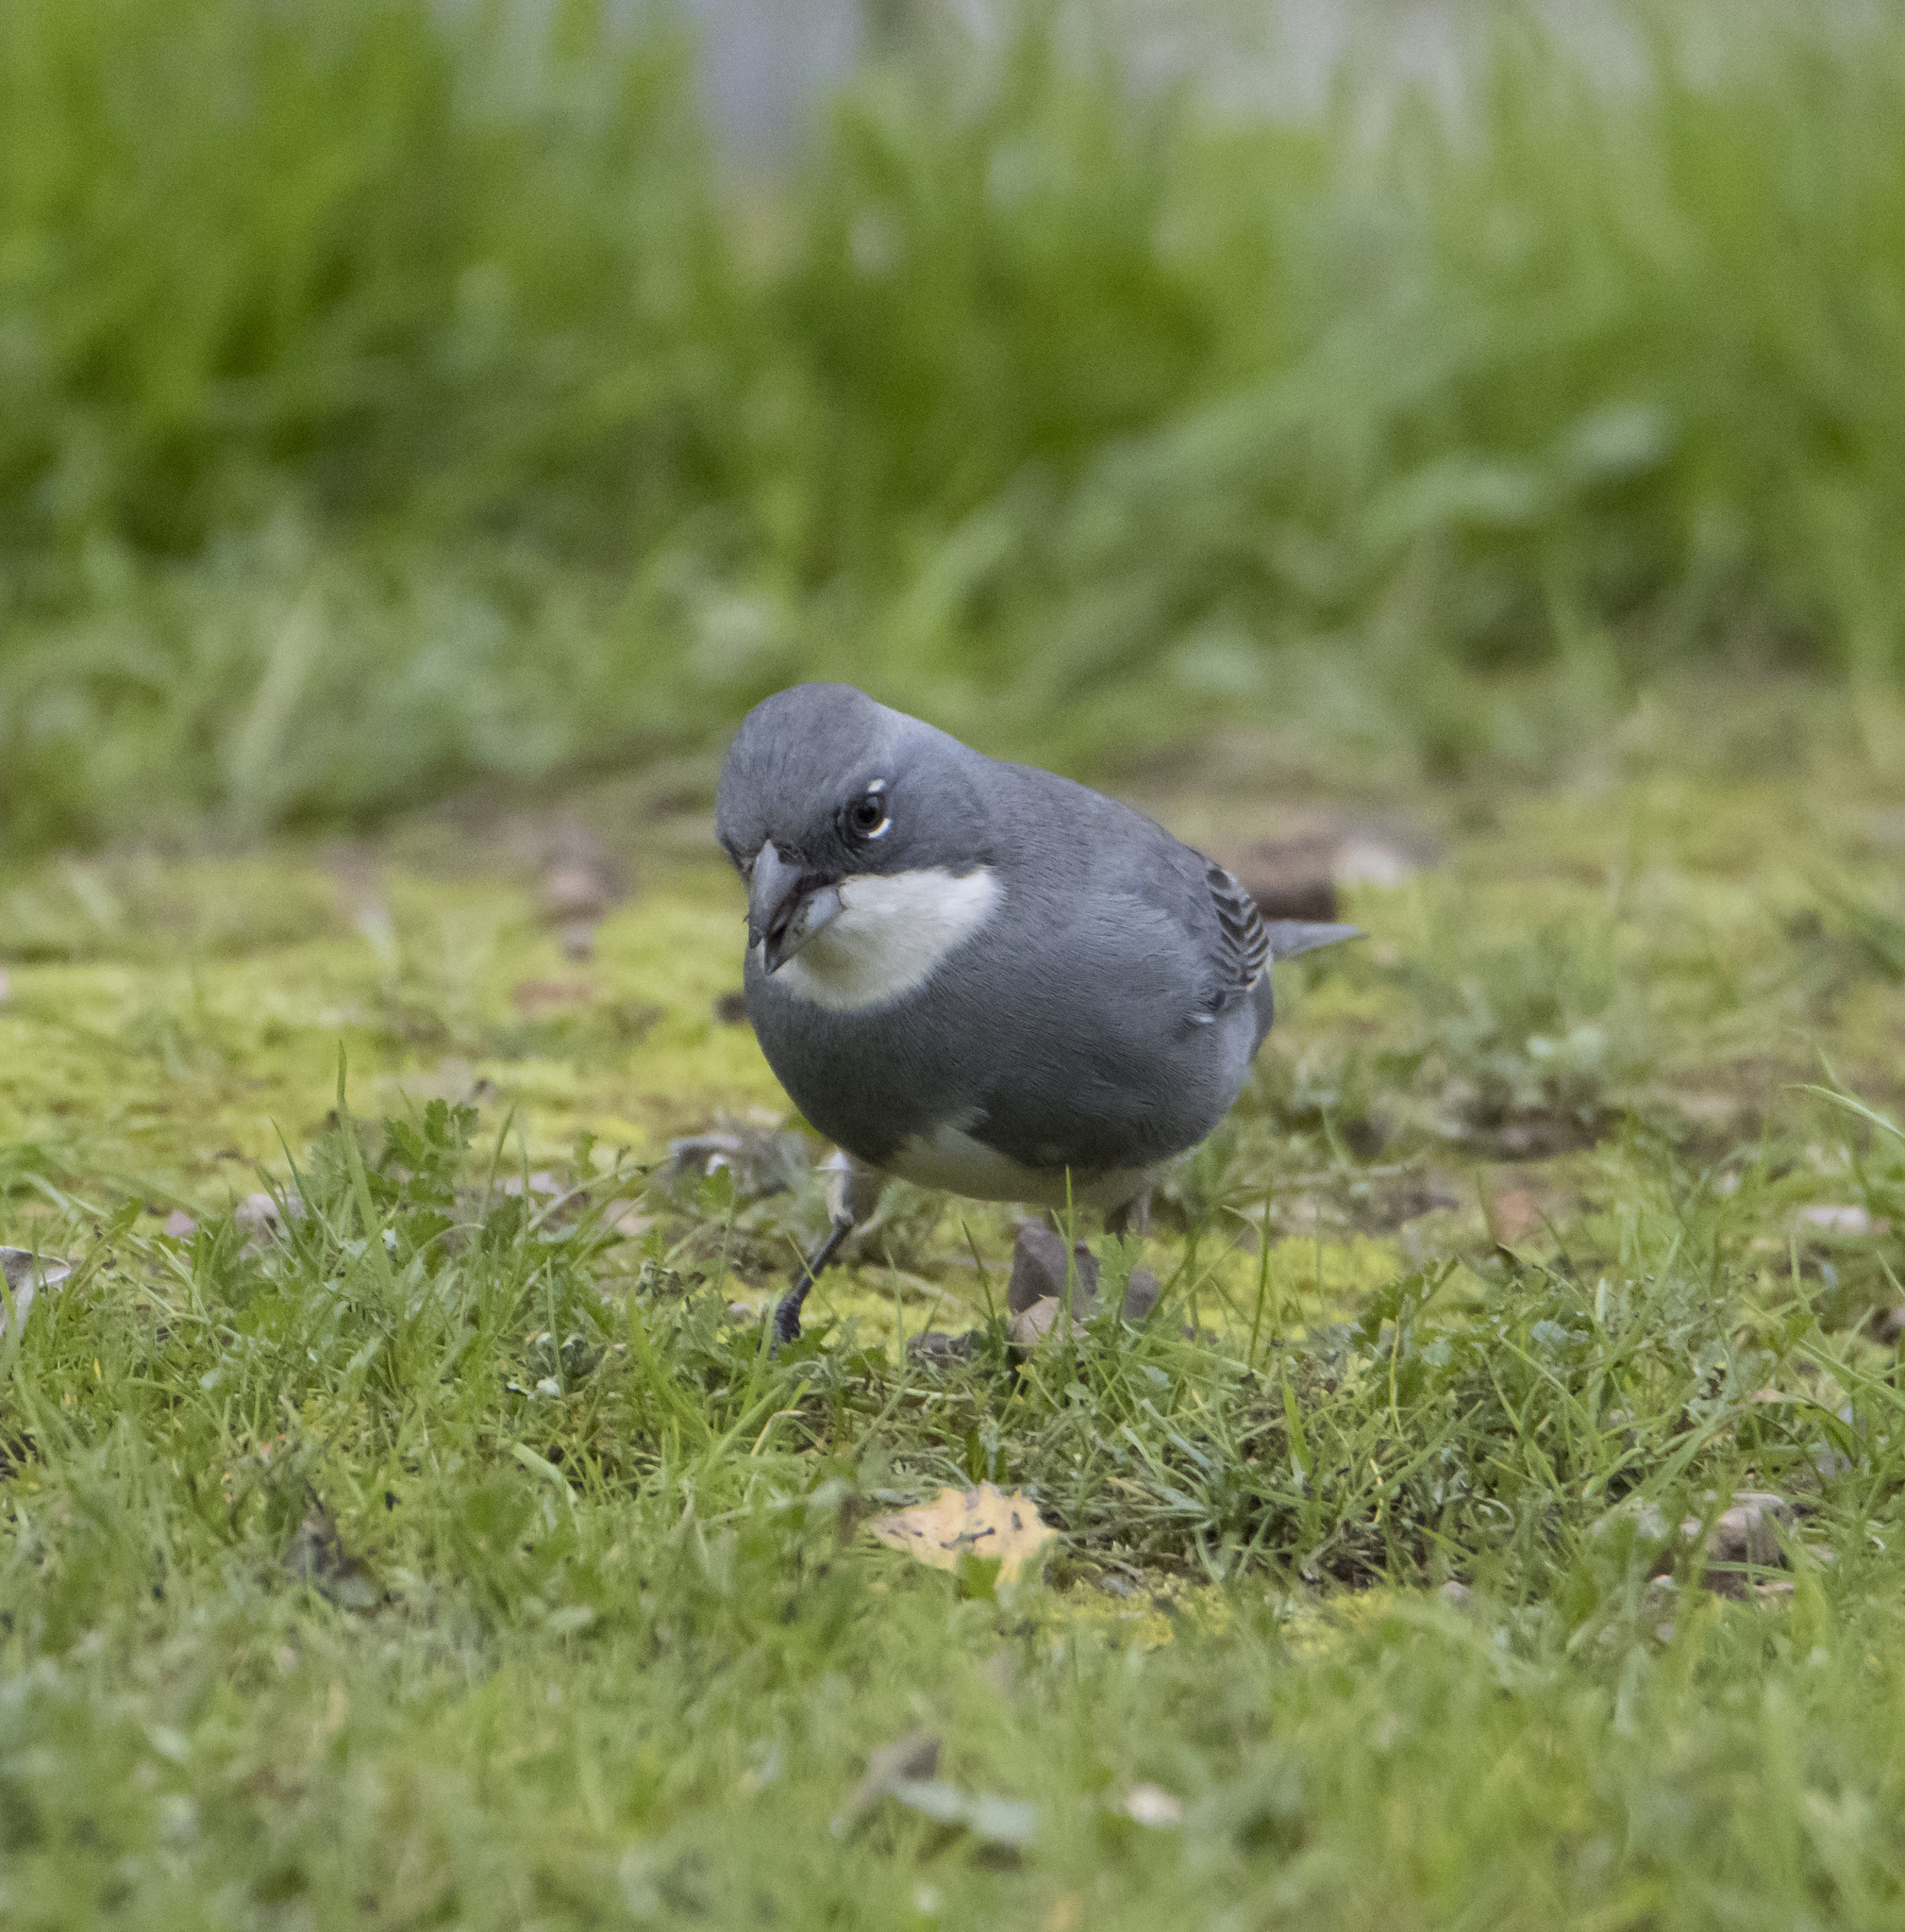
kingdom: Animalia
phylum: Chordata
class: Aves
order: Passeriformes
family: Thraupidae
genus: Diuca
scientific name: Diuca diuca
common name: Common diuca finch
